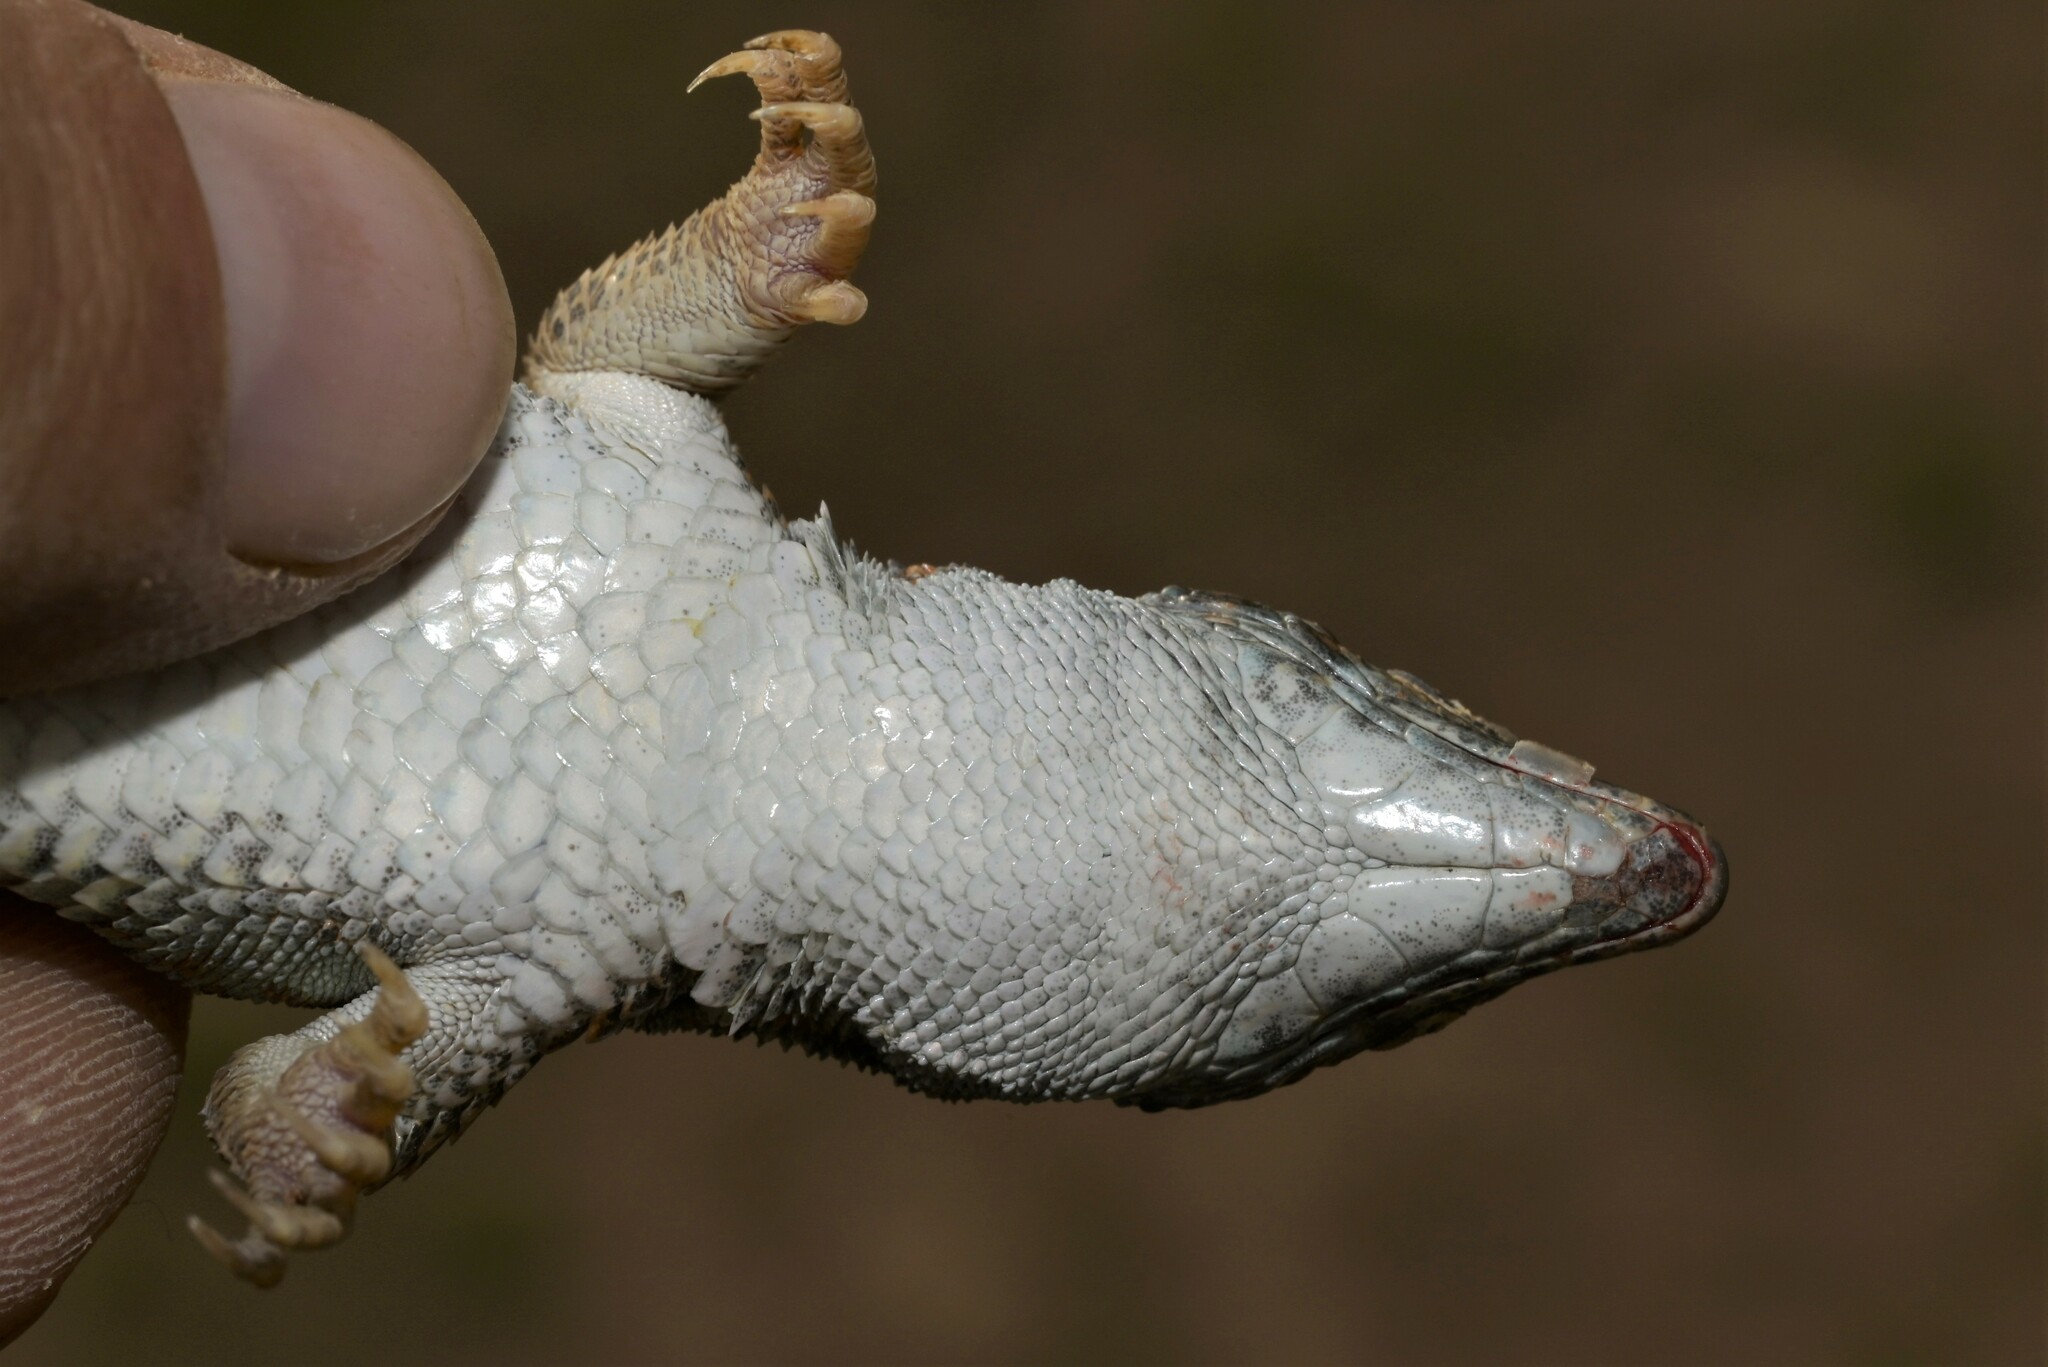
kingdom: Animalia
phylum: Chordata
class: Squamata
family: Lacertidae
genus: Acanthodactylus
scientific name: Acanthodactylus boskianus
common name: Bosc’s fringe-toed lizard
